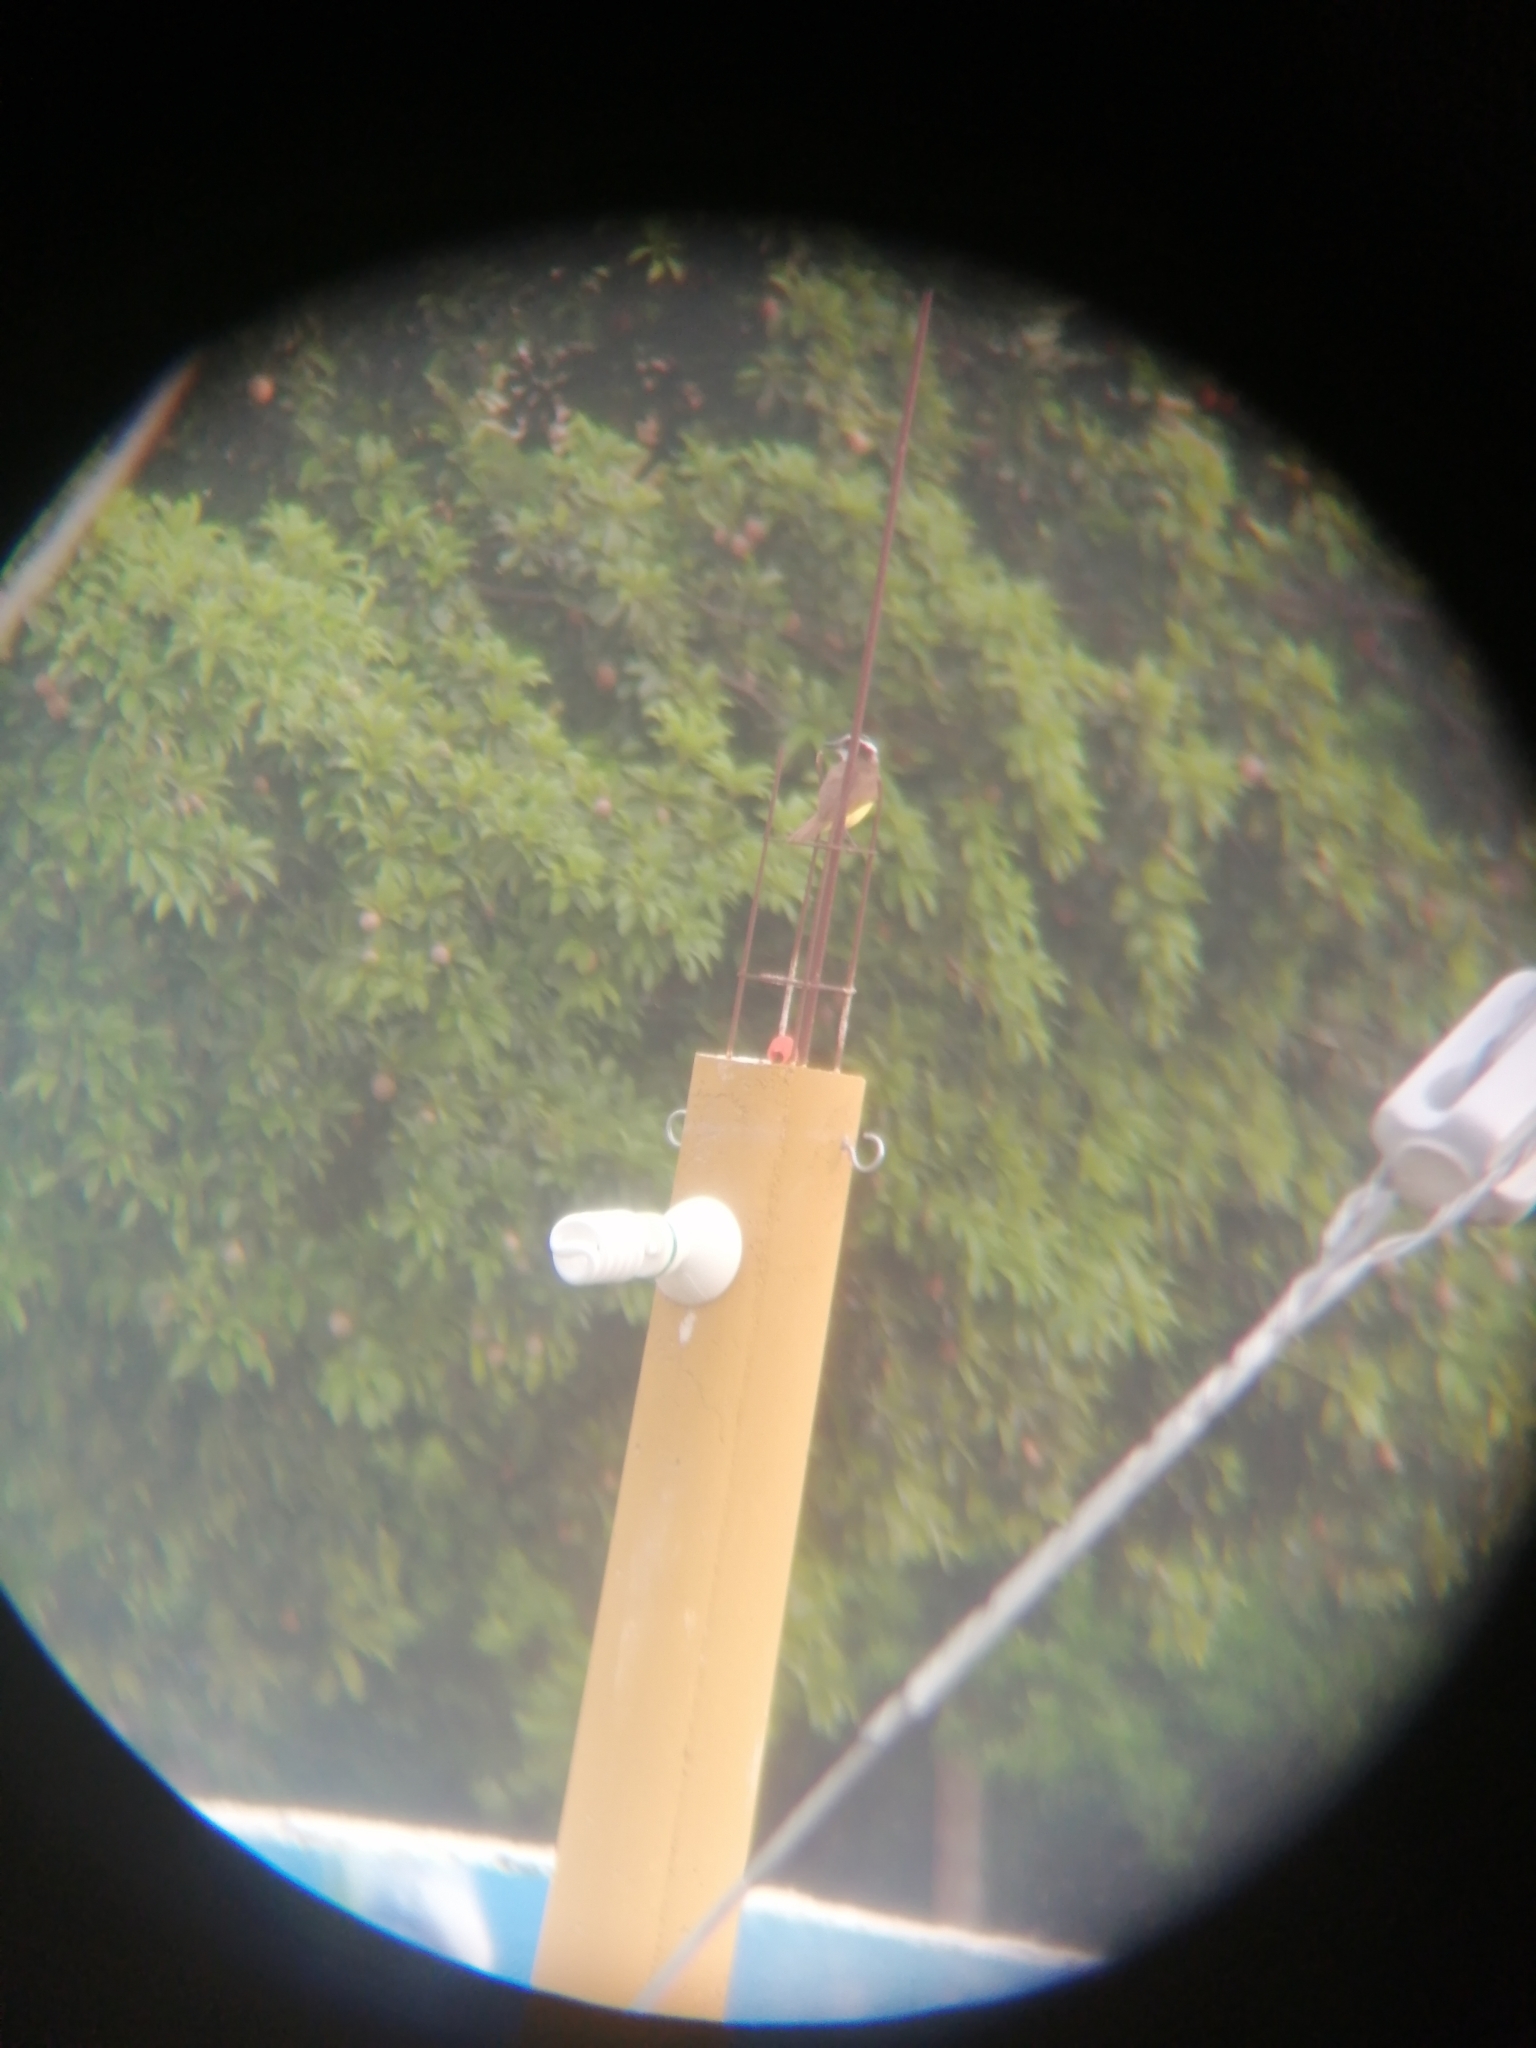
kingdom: Animalia
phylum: Chordata
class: Aves
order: Passeriformes
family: Tyrannidae
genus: Myiozetetes
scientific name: Myiozetetes similis
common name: Social flycatcher
